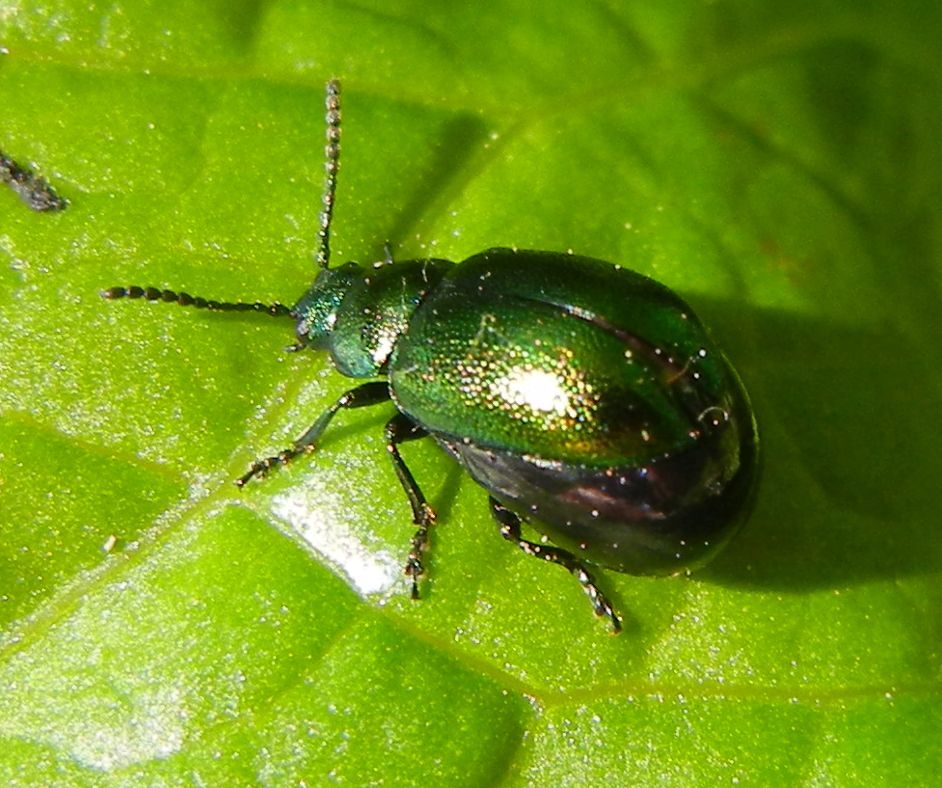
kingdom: Animalia
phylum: Arthropoda
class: Insecta
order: Coleoptera
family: Chrysomelidae
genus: Gastrophysa
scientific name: Gastrophysa viridula
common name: Green dock beetle
